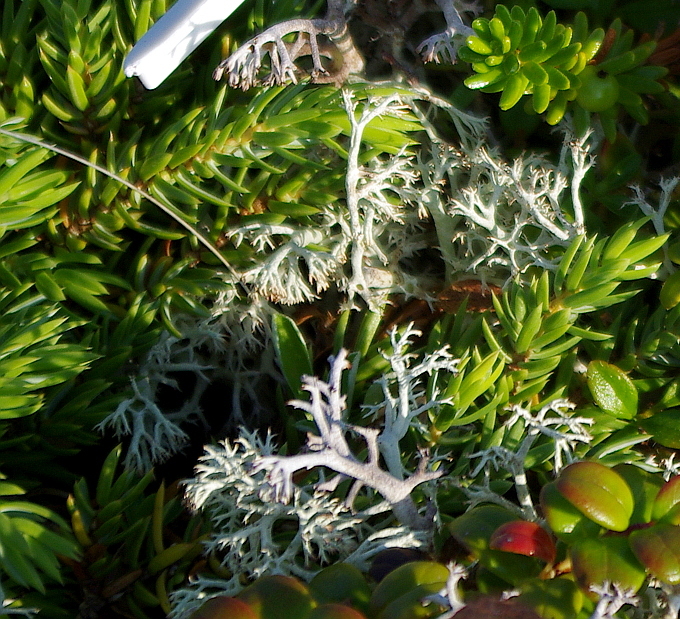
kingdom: Plantae
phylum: Tracheophyta
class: Pinopsida
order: Pinales
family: Cupressaceae
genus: Juniperus
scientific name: Juniperus communis
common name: Common juniper
